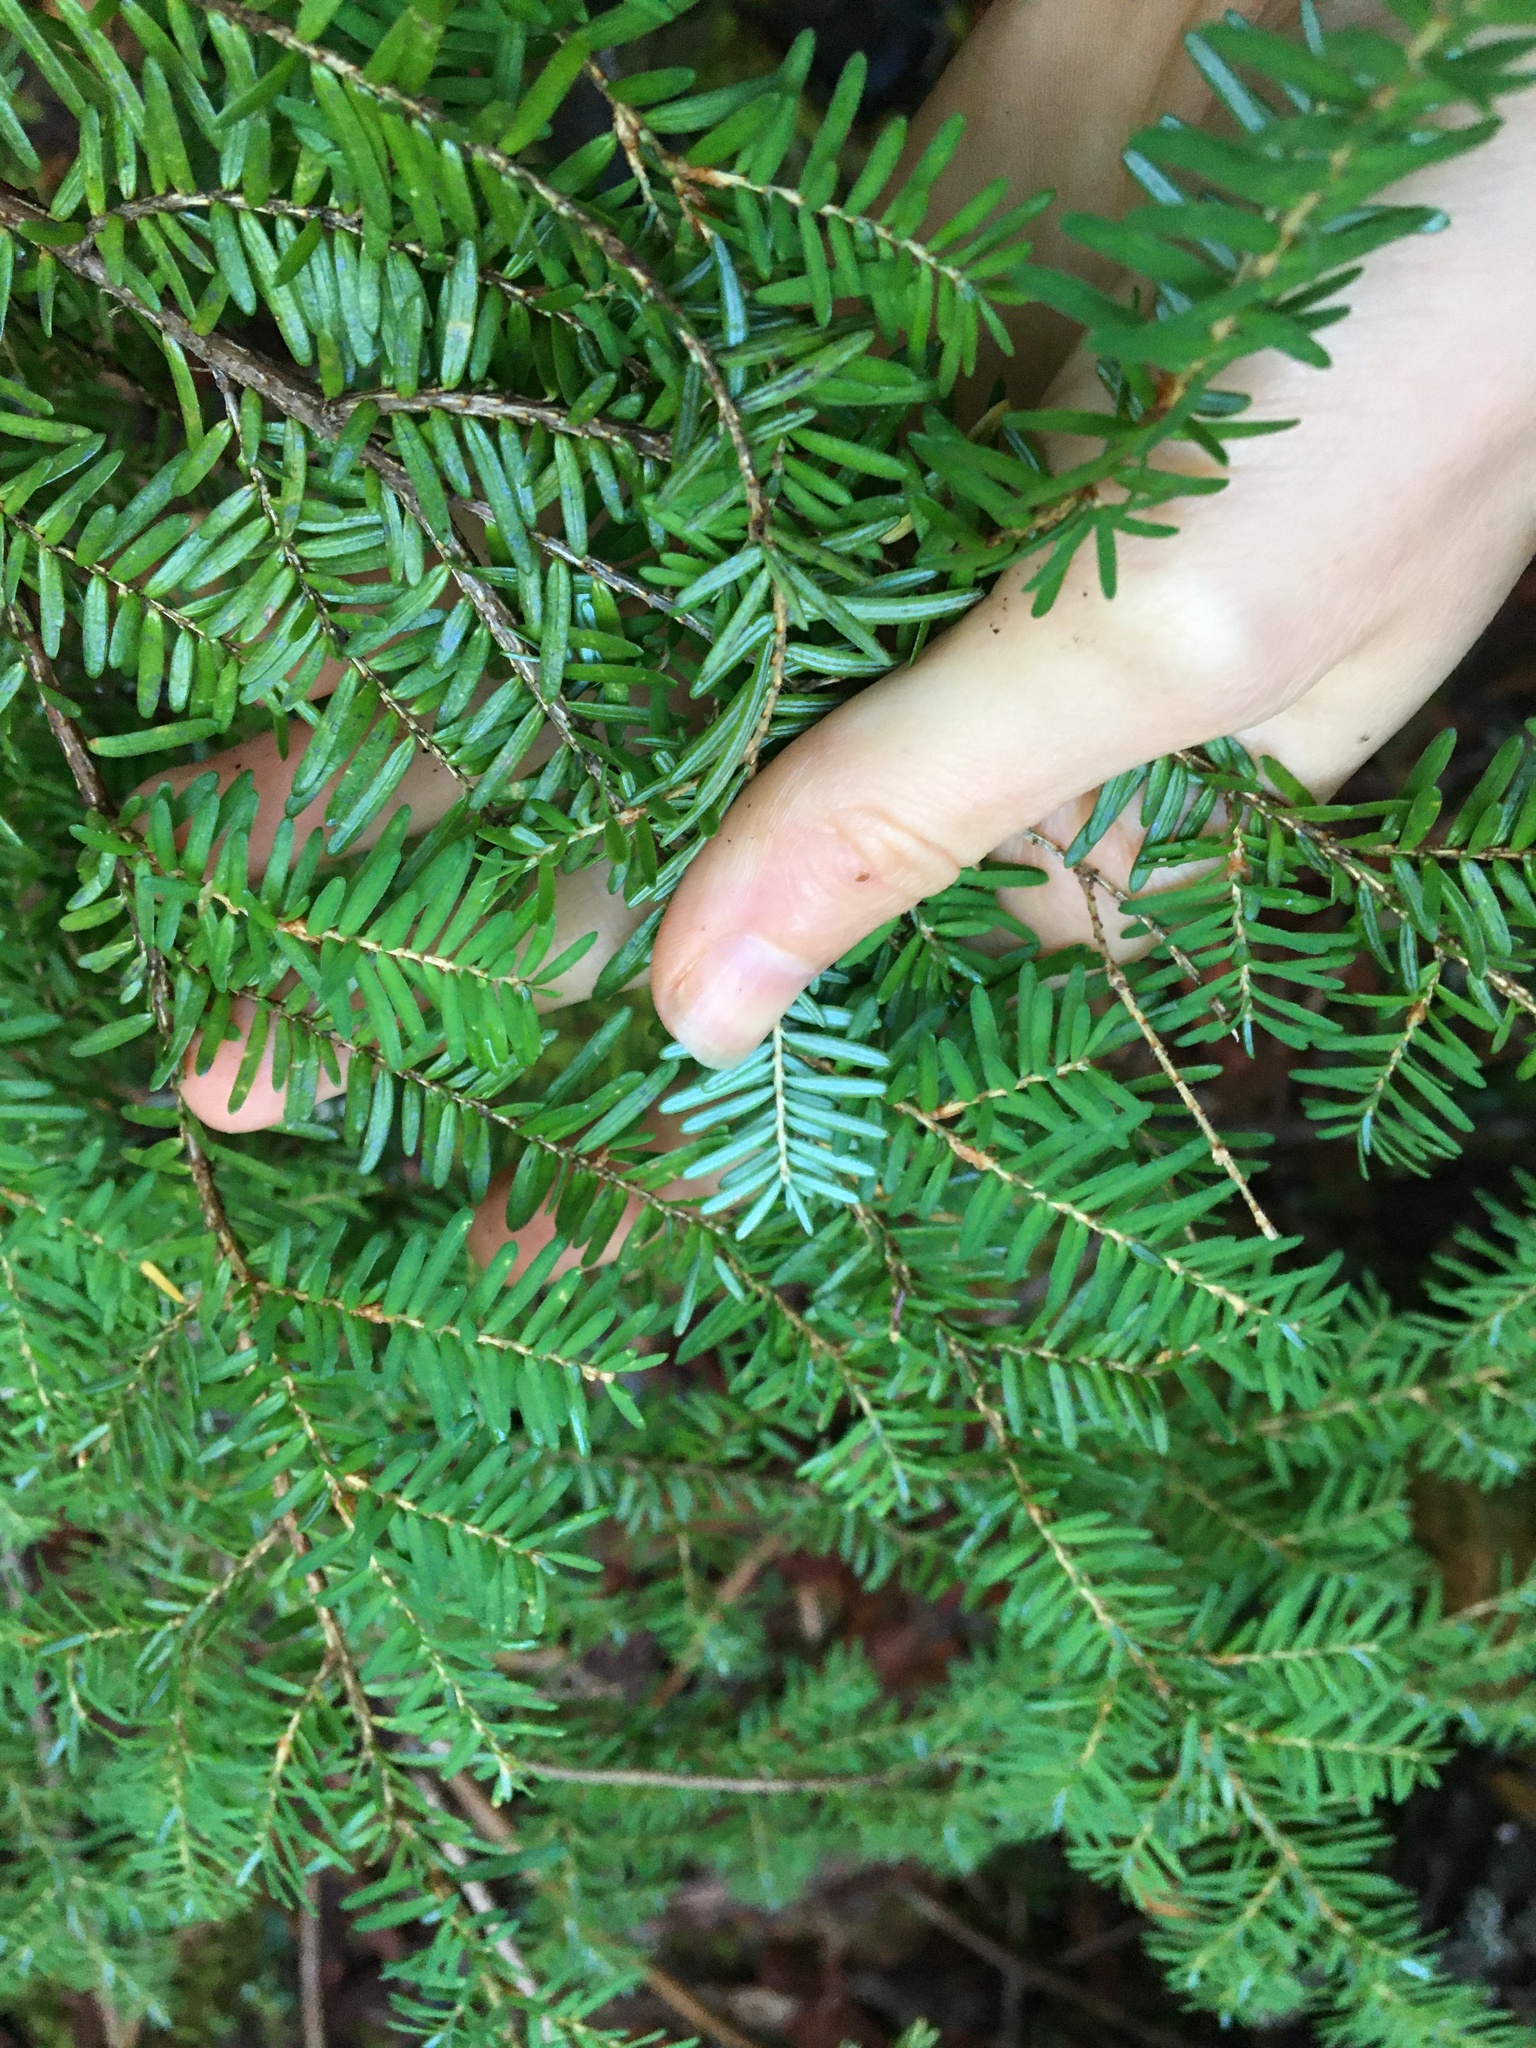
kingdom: Plantae
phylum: Tracheophyta
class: Pinopsida
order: Pinales
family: Pinaceae
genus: Tsuga
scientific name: Tsuga heterophylla
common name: Western hemlock
